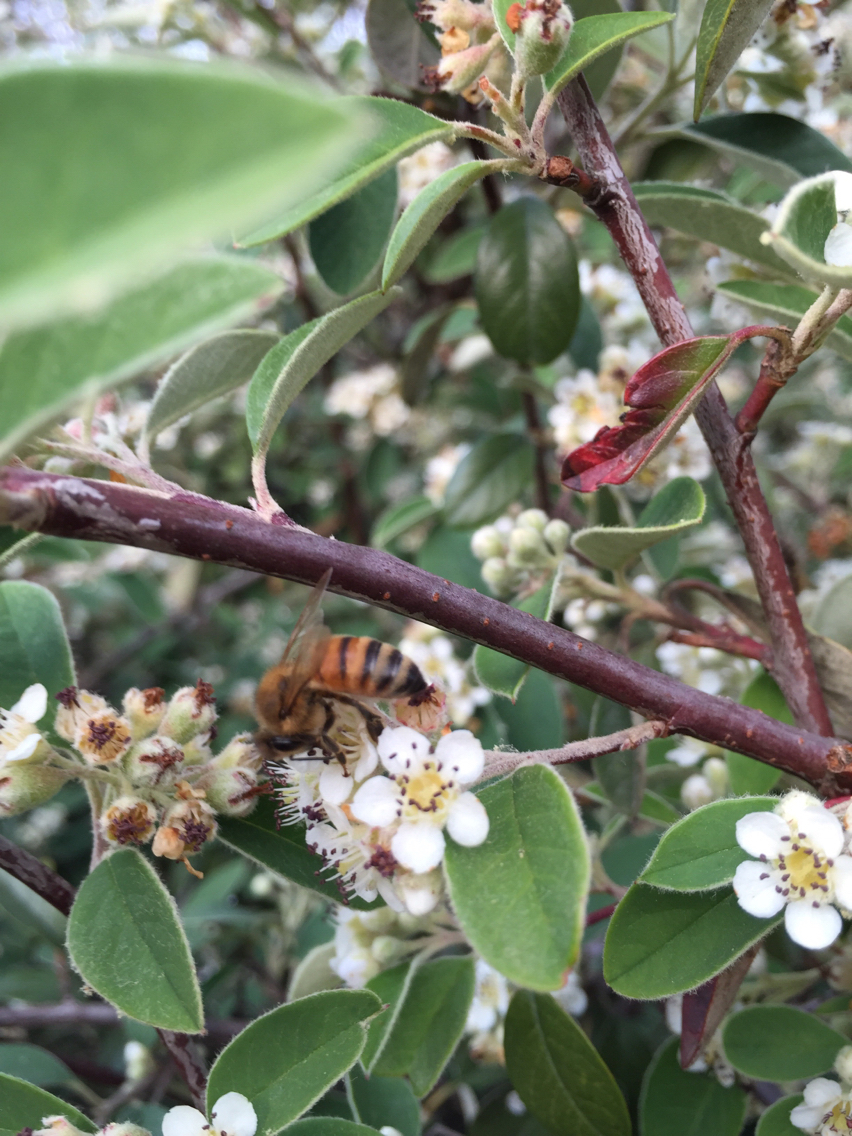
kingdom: Animalia
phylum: Arthropoda
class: Insecta
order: Hymenoptera
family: Apidae
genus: Apis
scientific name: Apis mellifera
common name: Honey bee
